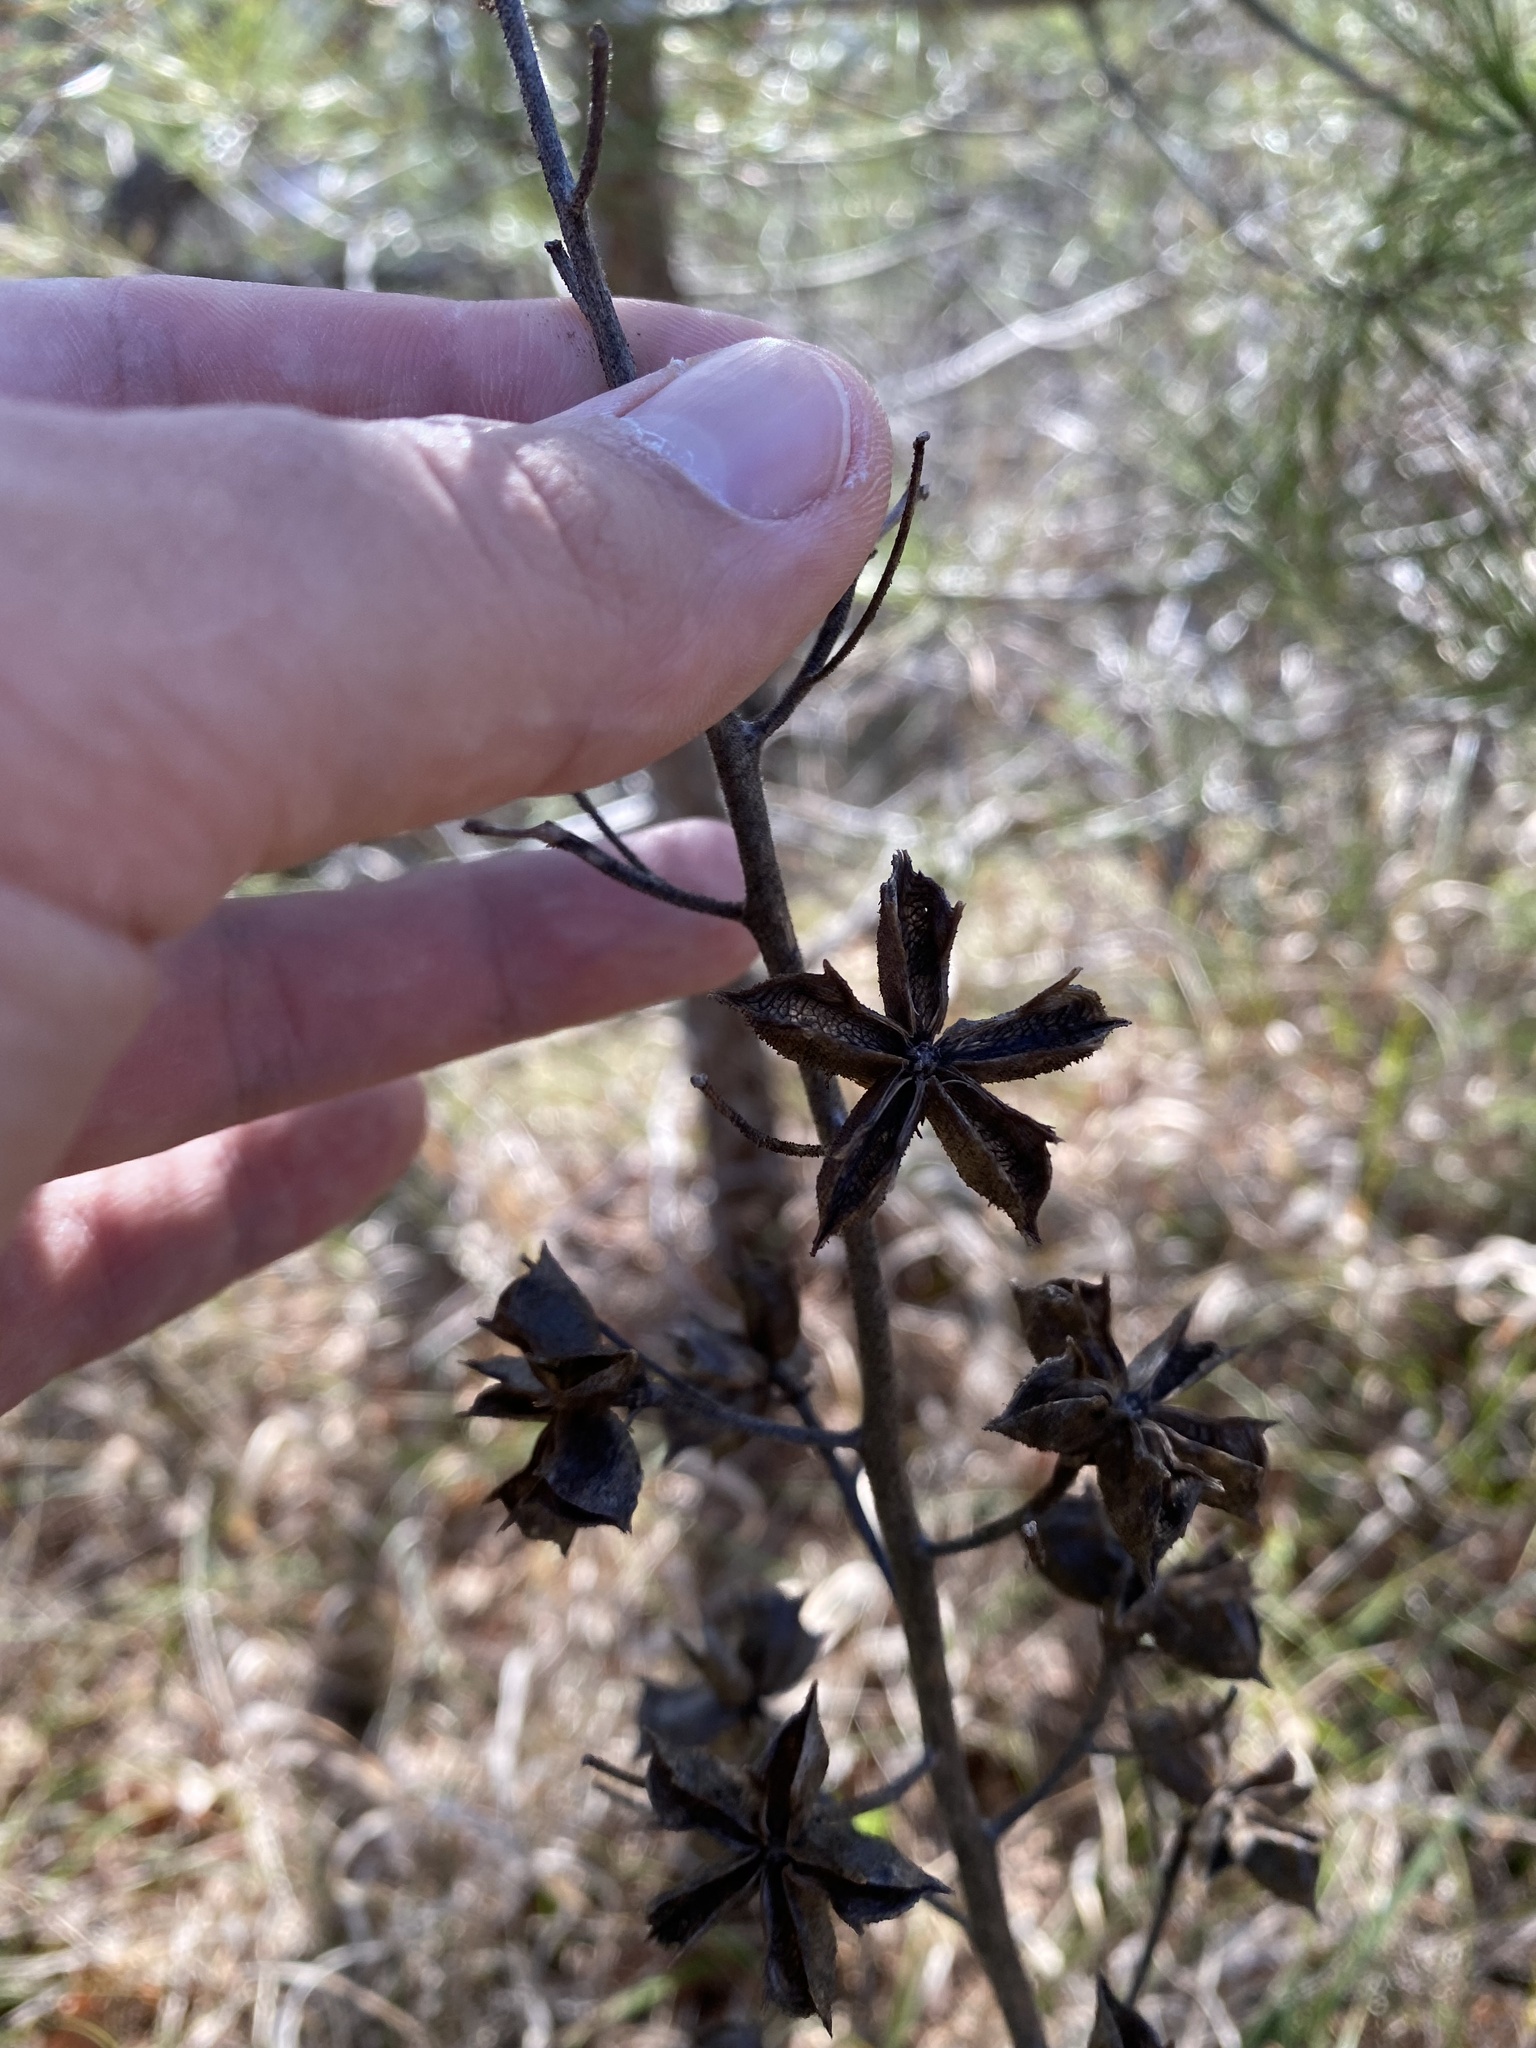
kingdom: Plantae
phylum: Tracheophyta
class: Magnoliopsida
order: Sapindales
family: Rutaceae
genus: Dictamnus
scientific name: Dictamnus albus
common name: Gasplant
